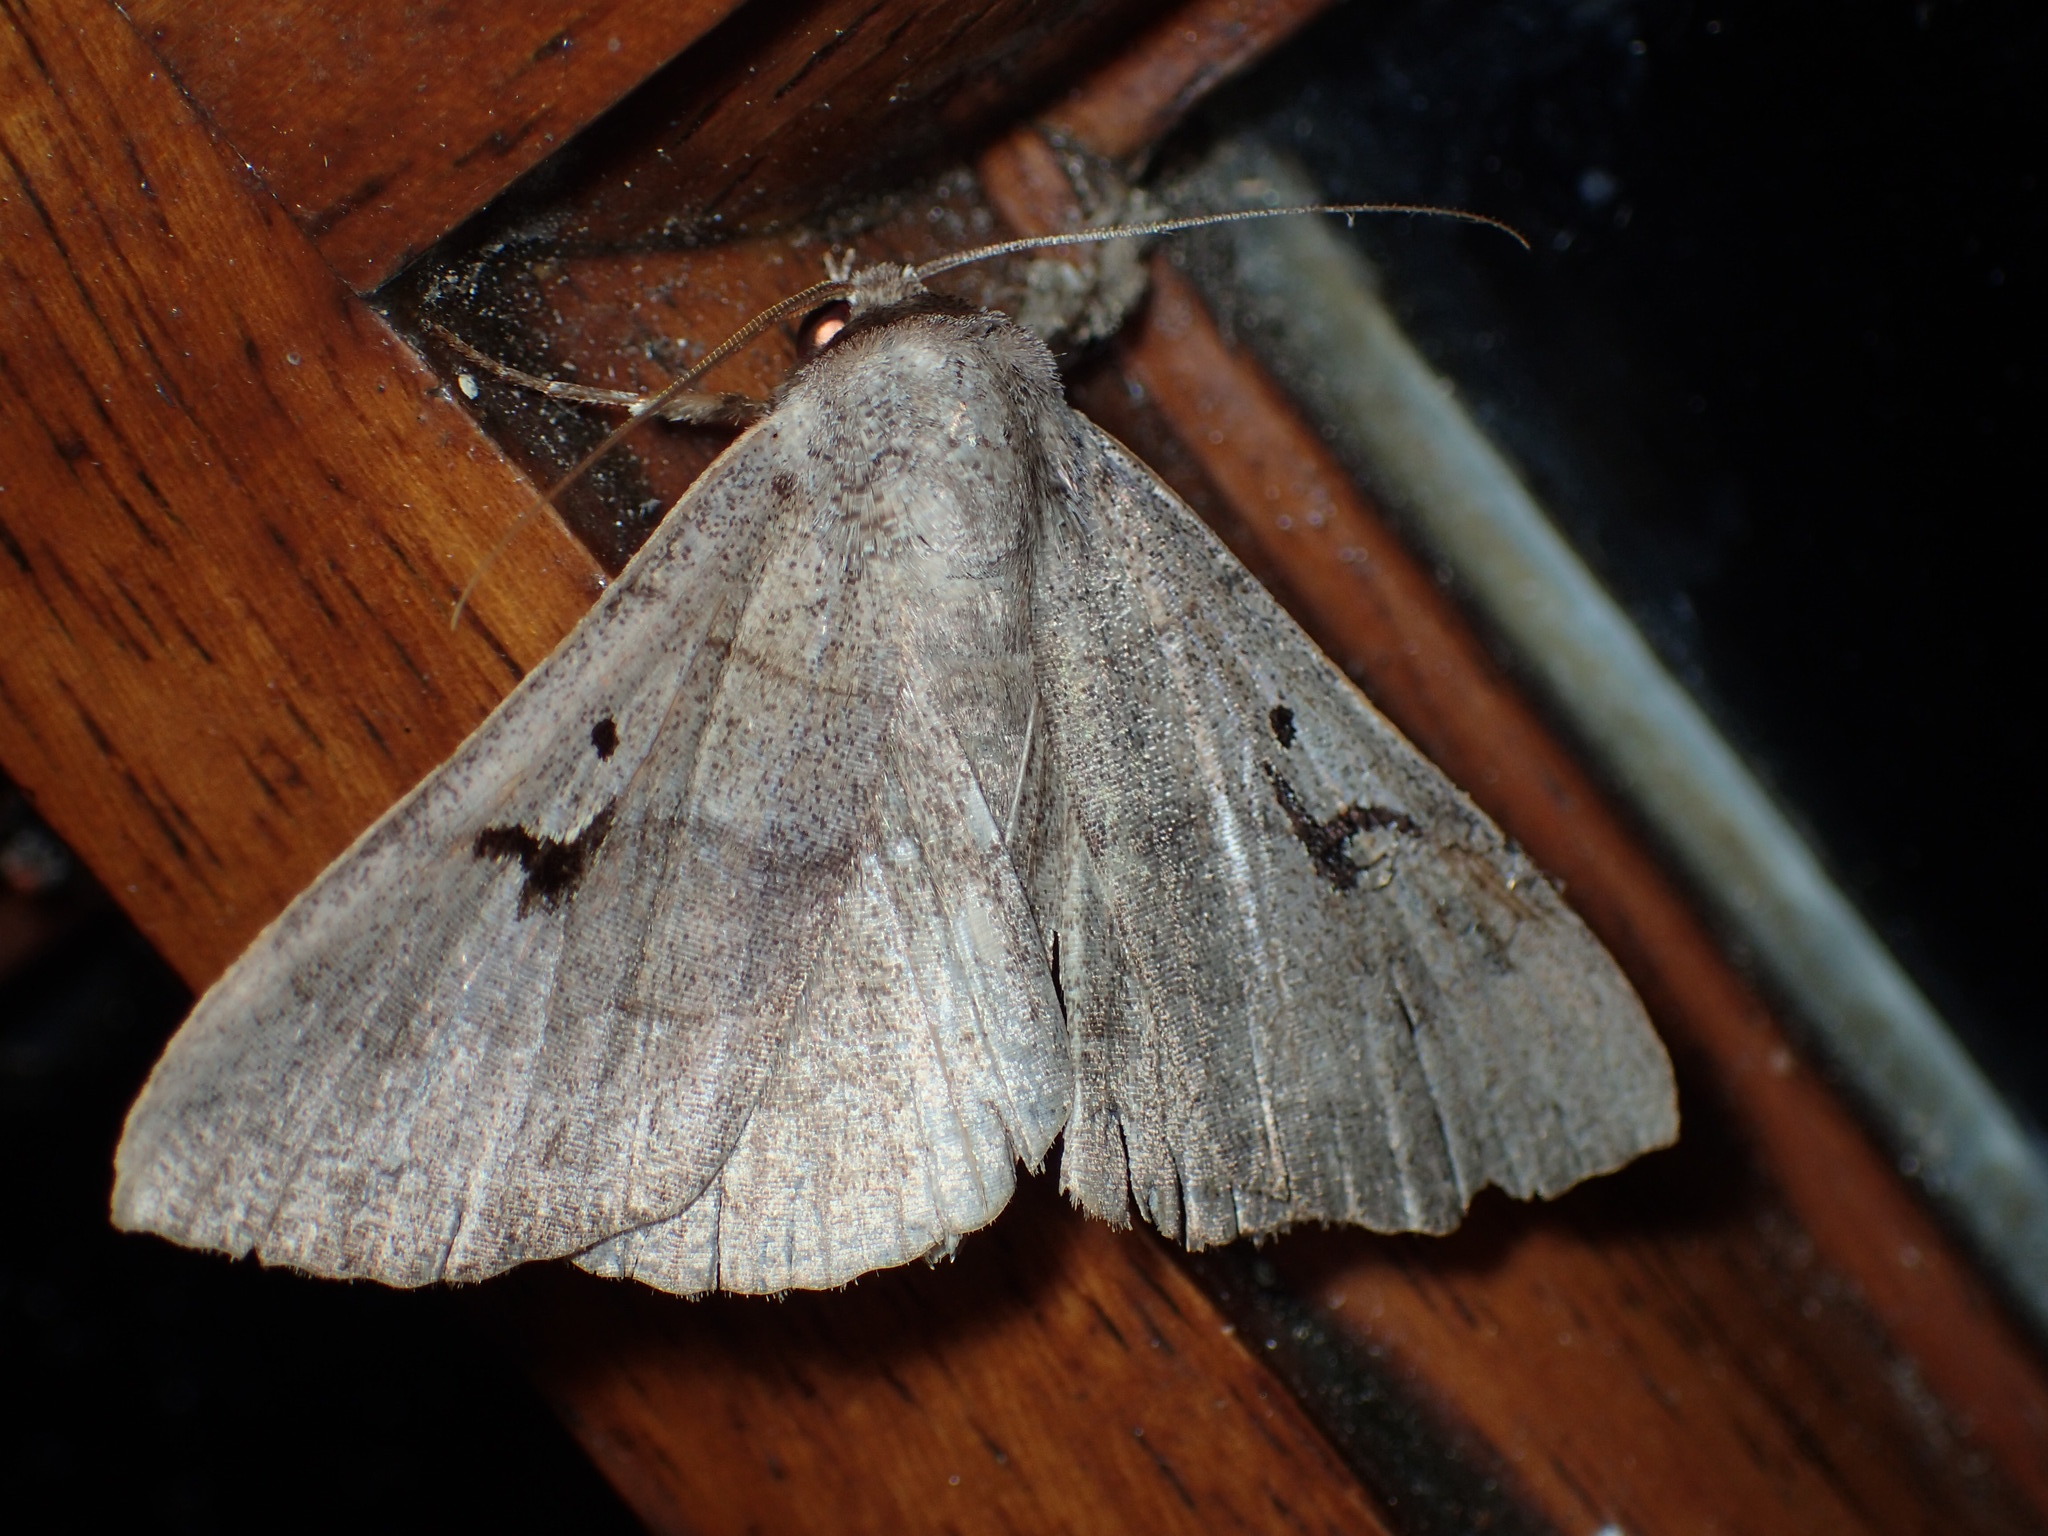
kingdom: Animalia
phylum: Arthropoda
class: Insecta
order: Lepidoptera
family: Erebidae
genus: Panopoda
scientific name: Panopoda carneicosta
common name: Brown panopoda moth
